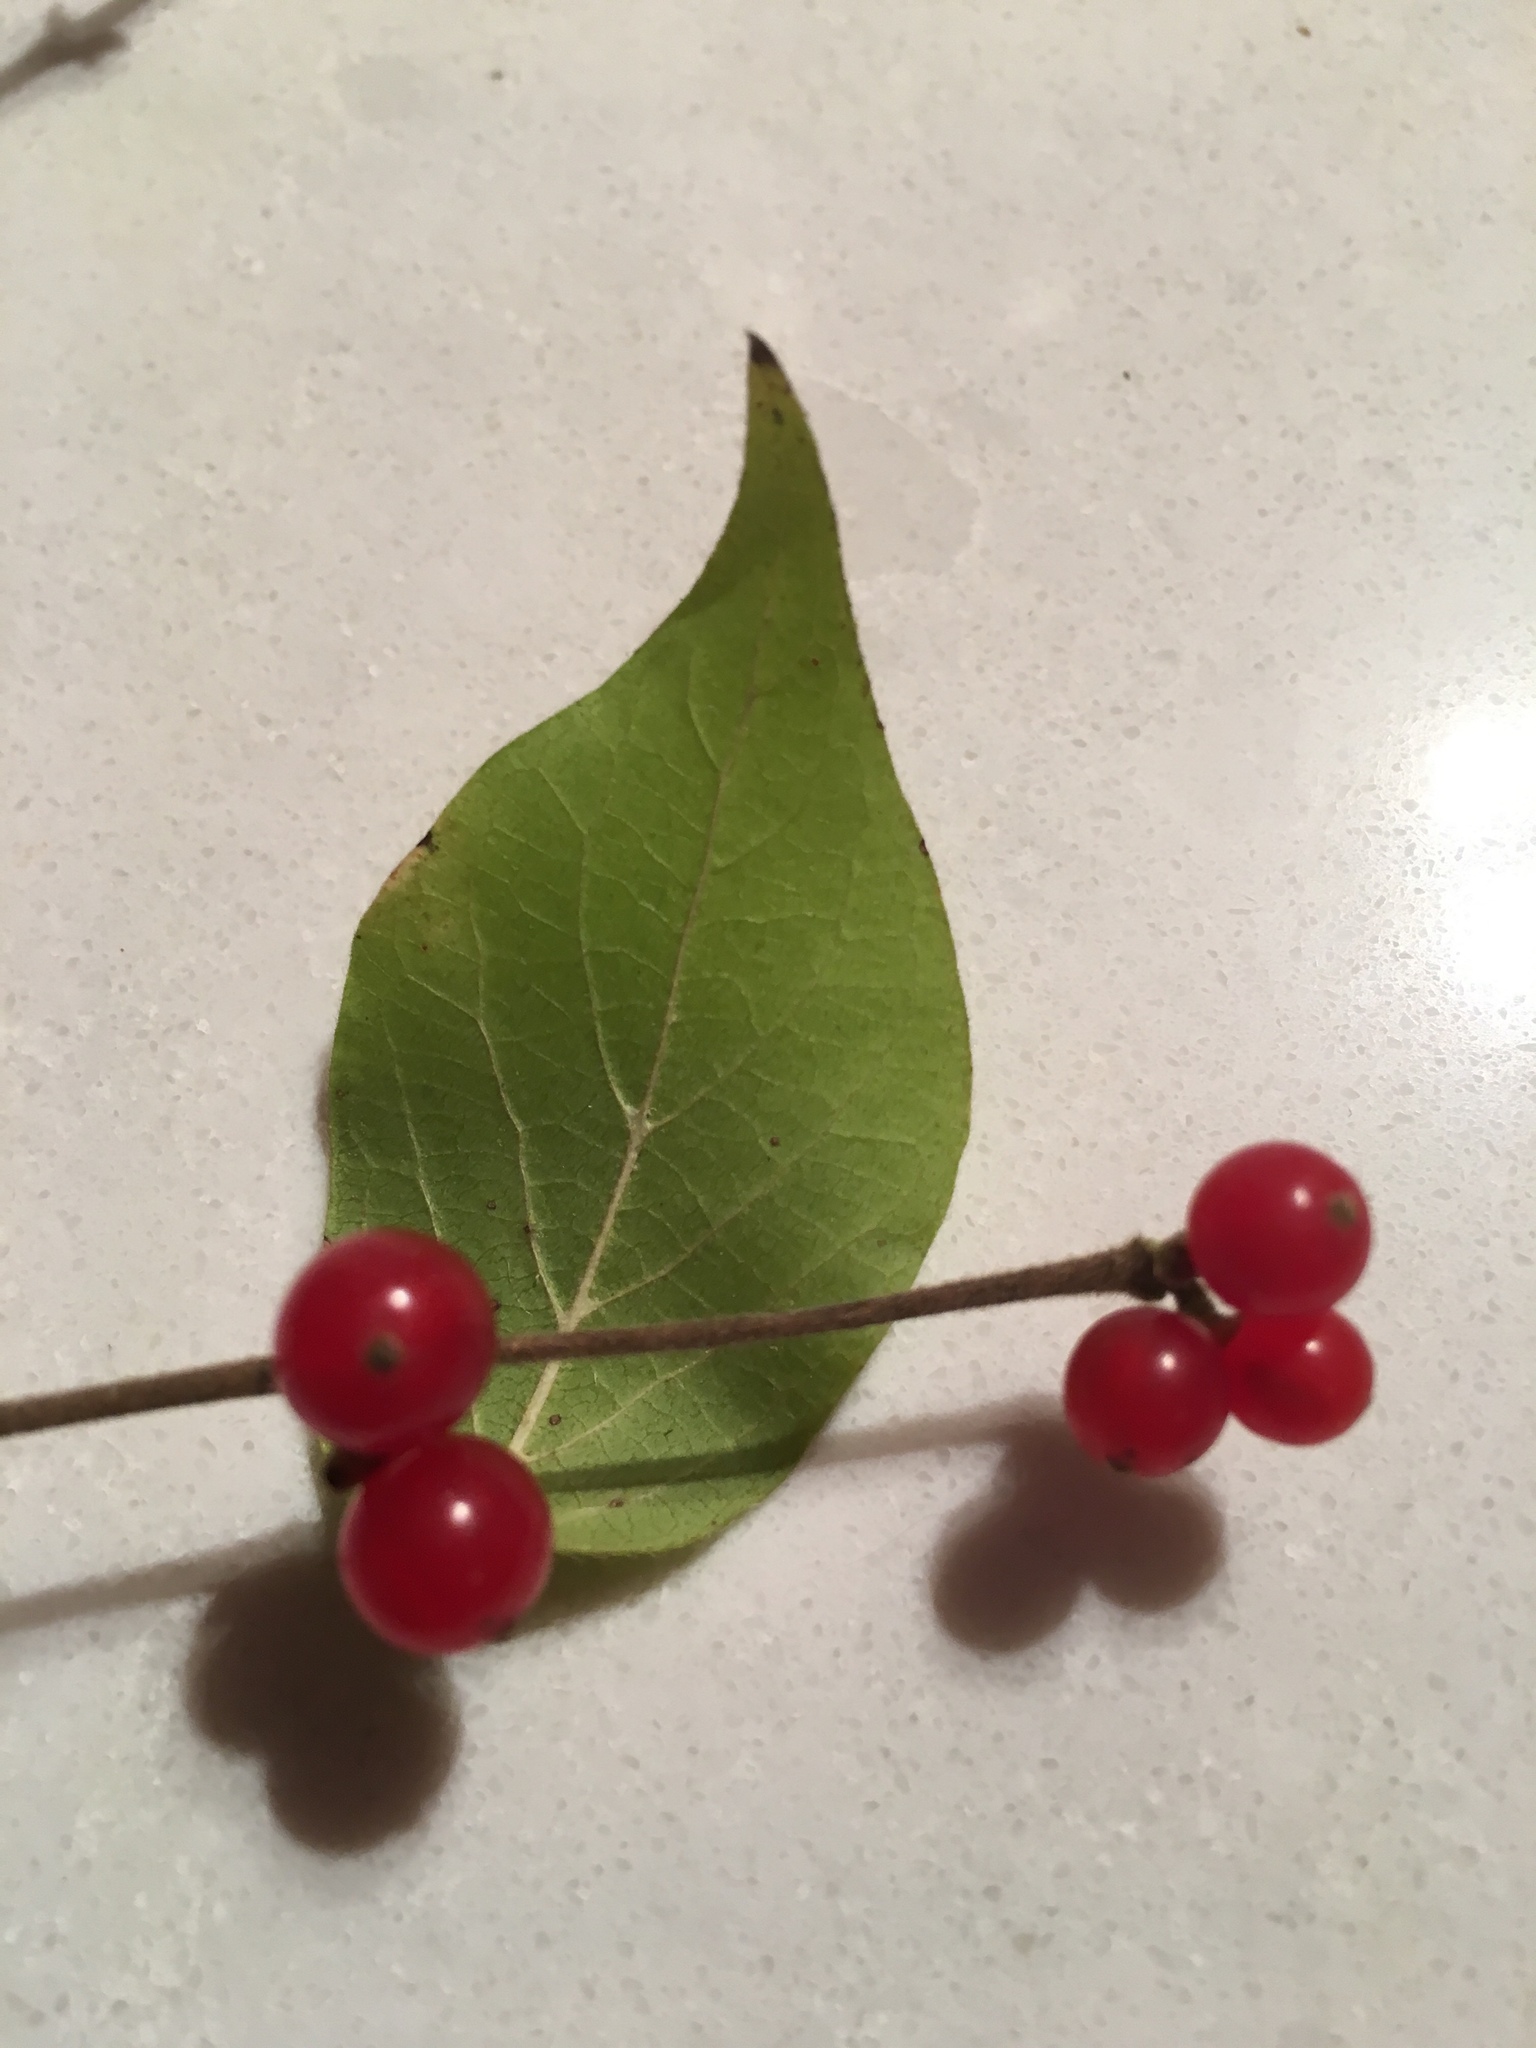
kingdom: Plantae
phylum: Tracheophyta
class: Magnoliopsida
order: Dipsacales
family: Caprifoliaceae
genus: Lonicera
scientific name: Lonicera maackii
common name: Amur honeysuckle
